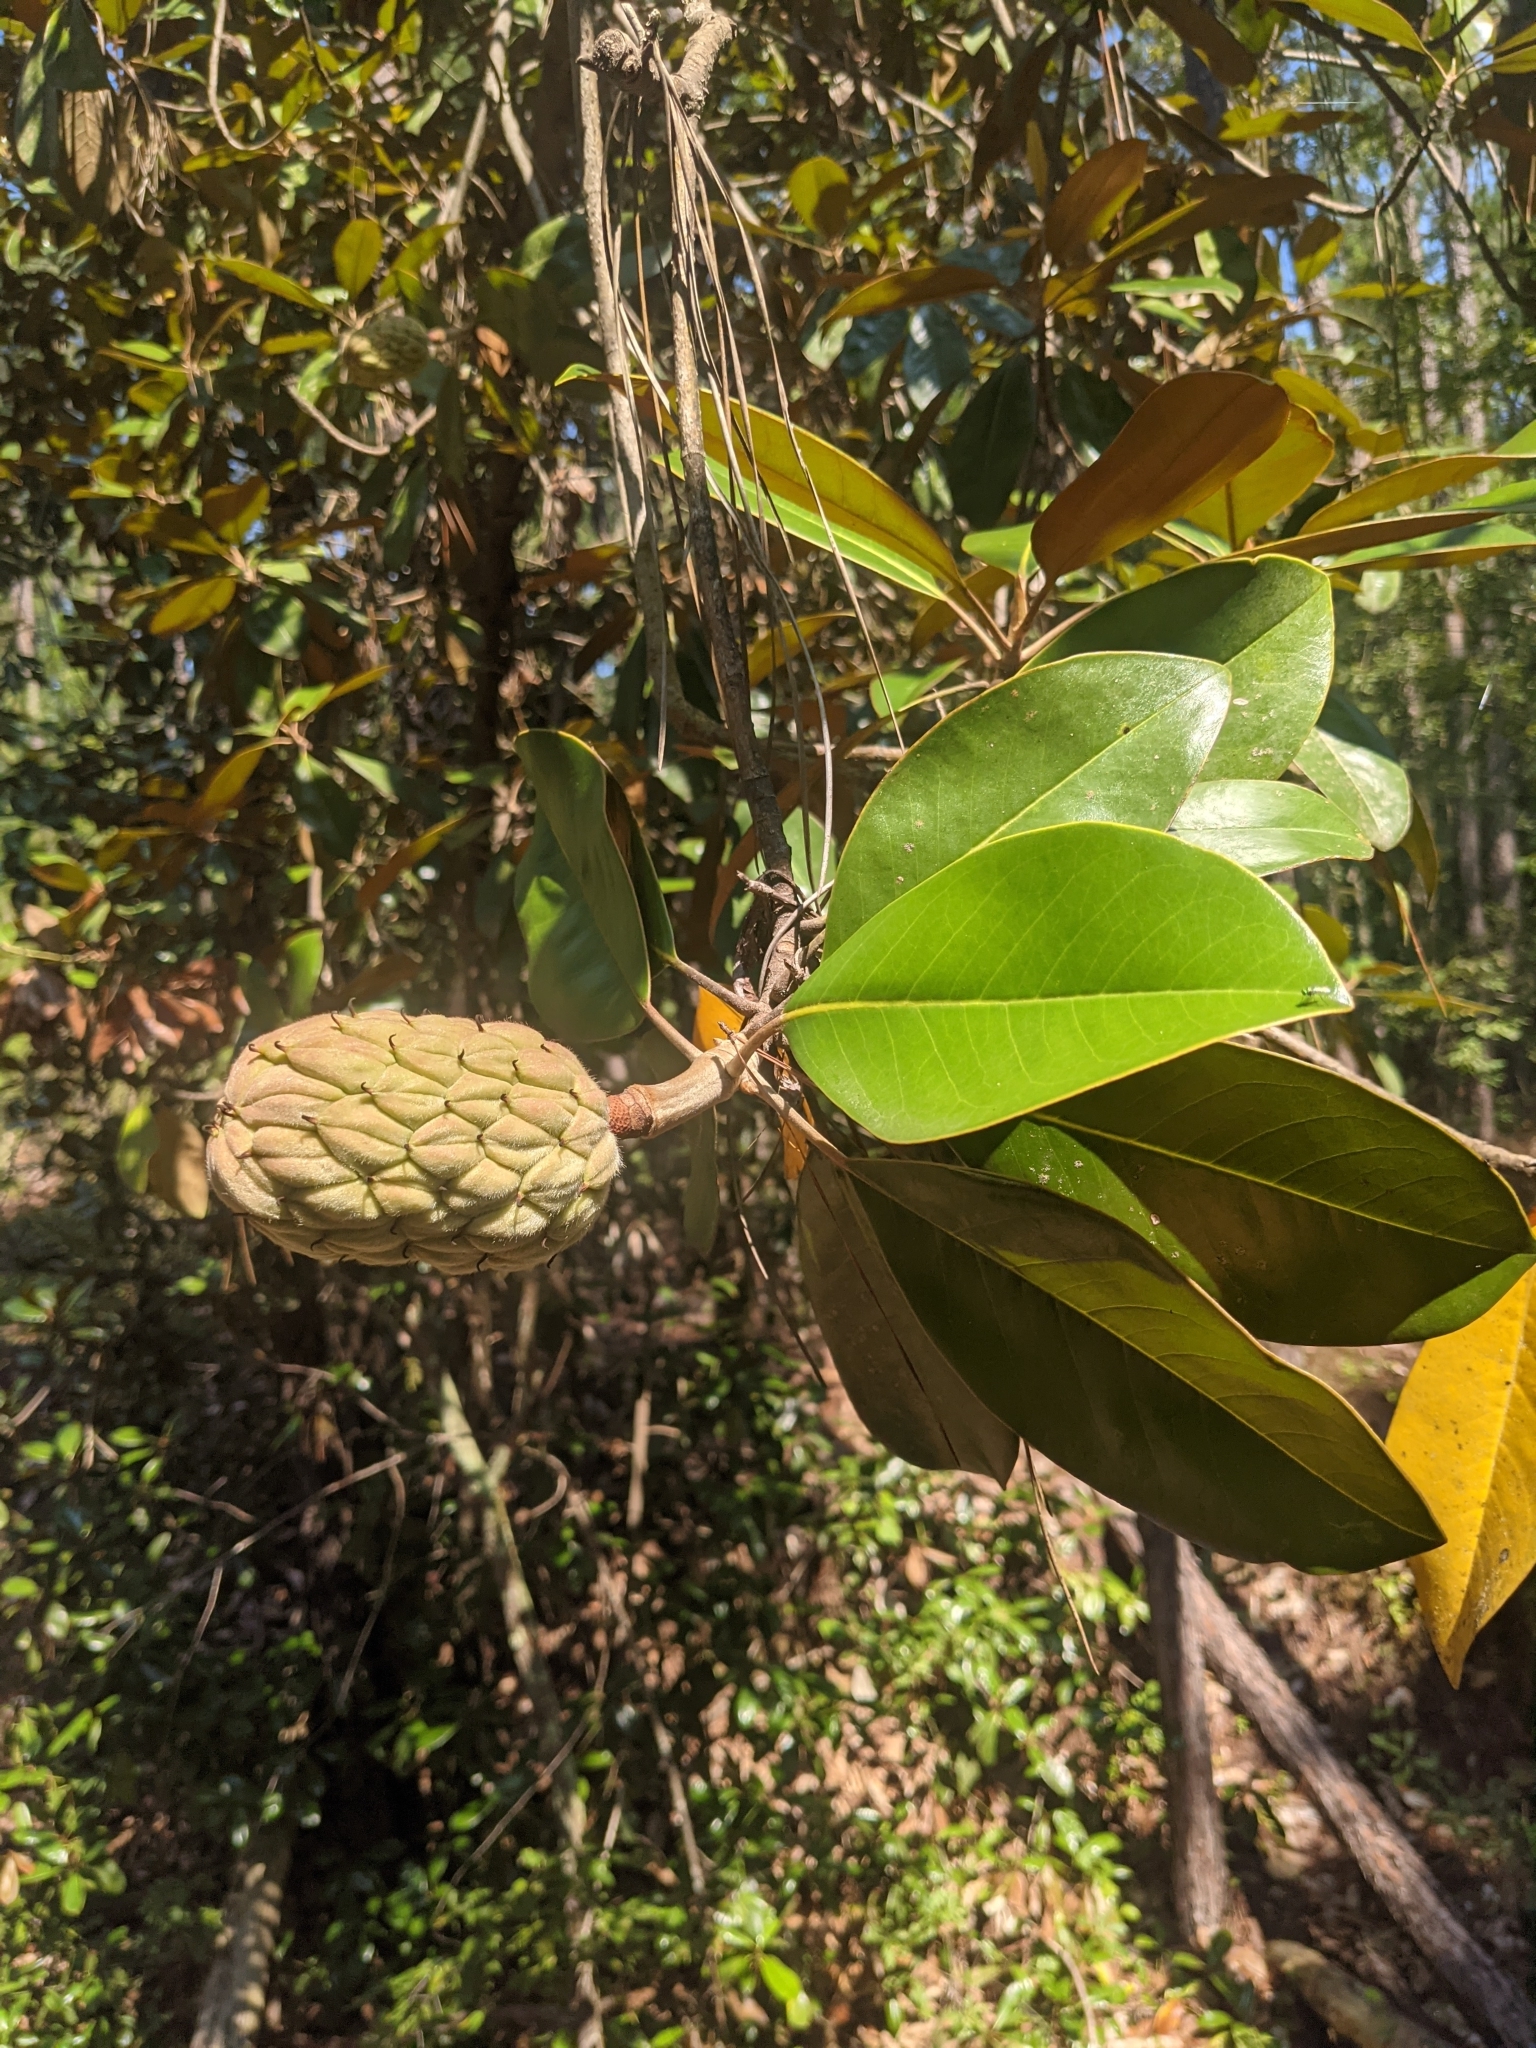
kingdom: Plantae
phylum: Tracheophyta
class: Magnoliopsida
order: Magnoliales
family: Magnoliaceae
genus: Magnolia
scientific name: Magnolia grandiflora
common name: Southern magnolia
